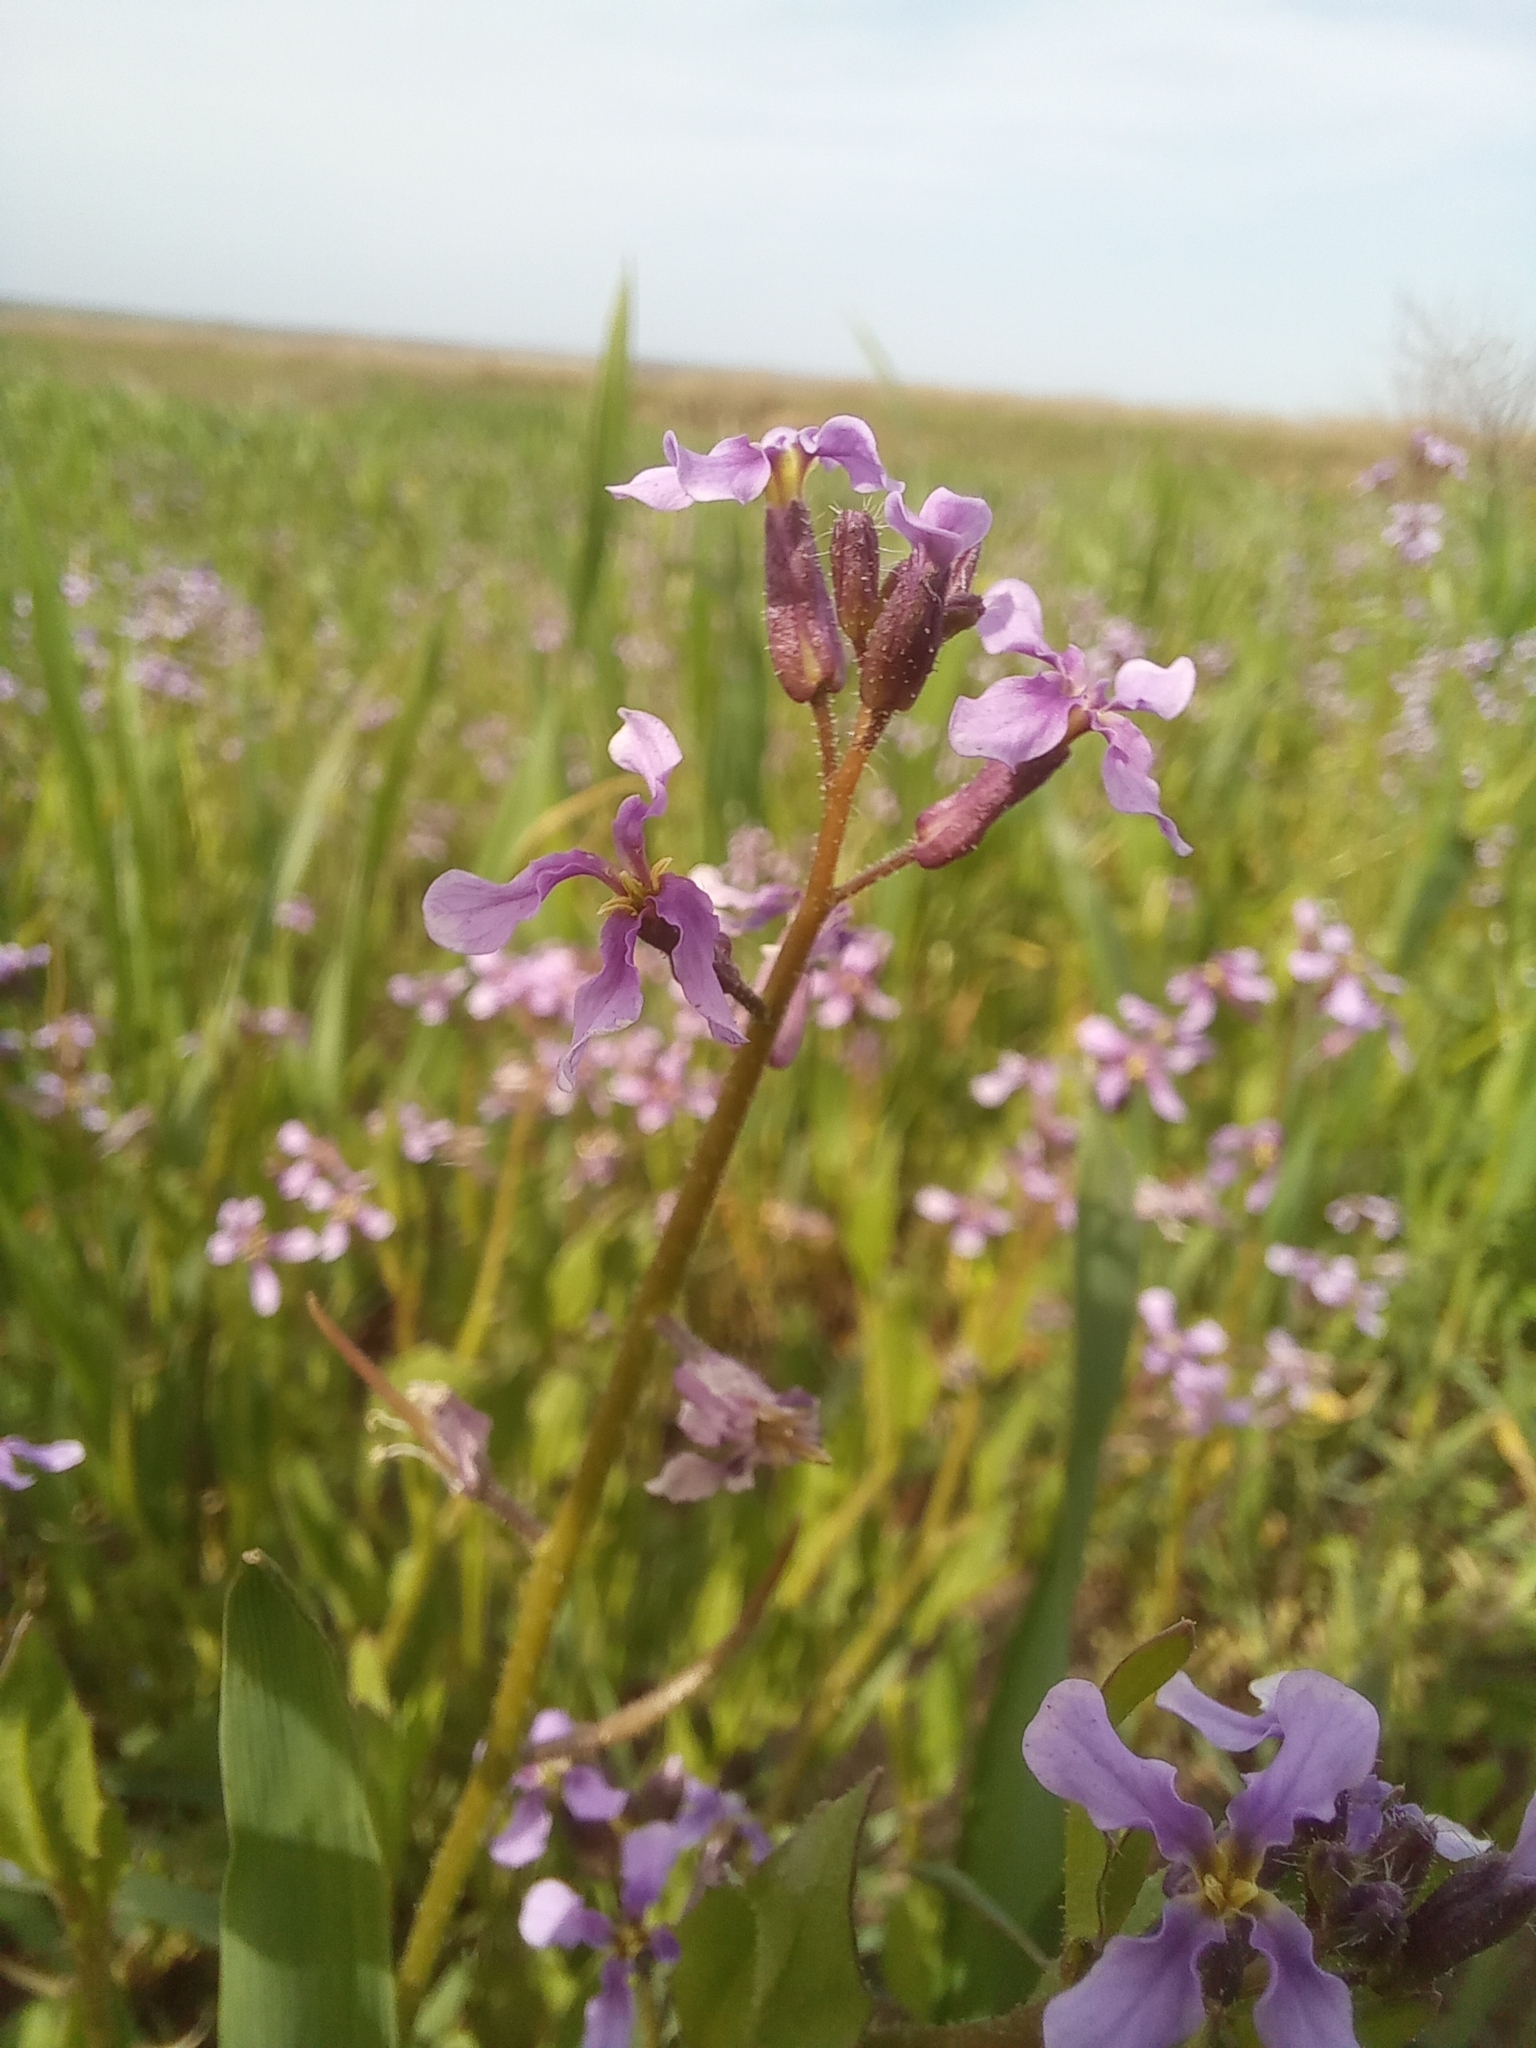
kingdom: Plantae
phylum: Tracheophyta
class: Magnoliopsida
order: Brassicales
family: Brassicaceae
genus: Chorispora
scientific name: Chorispora tenella
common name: Crossflower
